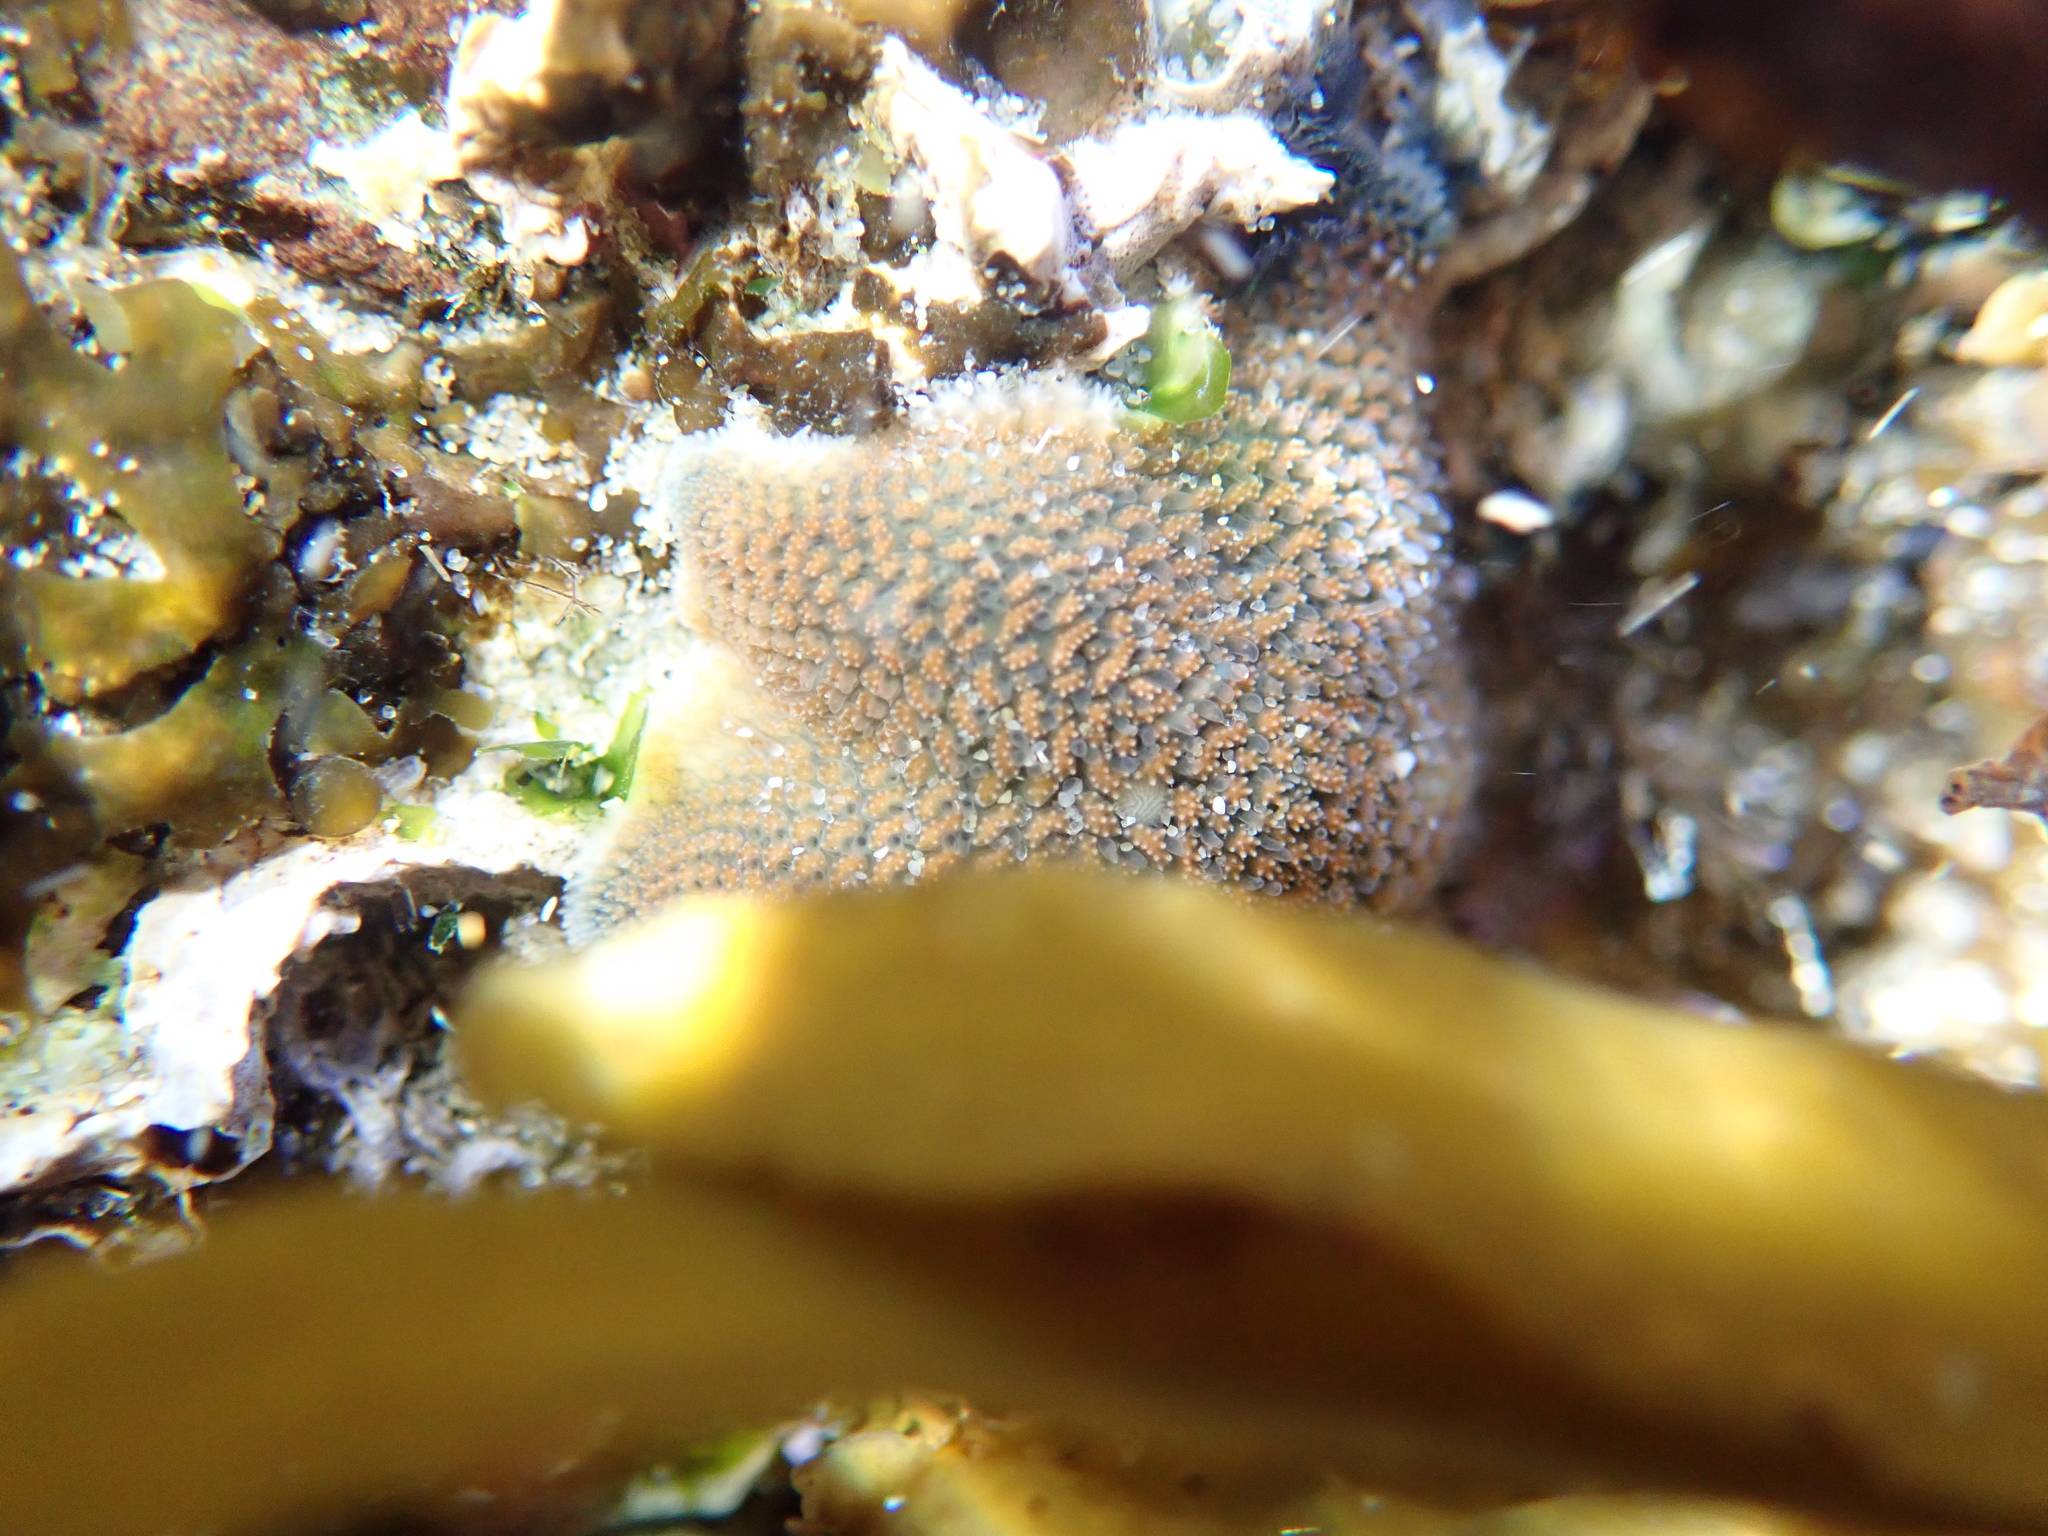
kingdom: Animalia
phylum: Echinodermata
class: Asteroidea
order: Valvatida
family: Asterinidae
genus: Patiriella
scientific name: Patiriella regularis
